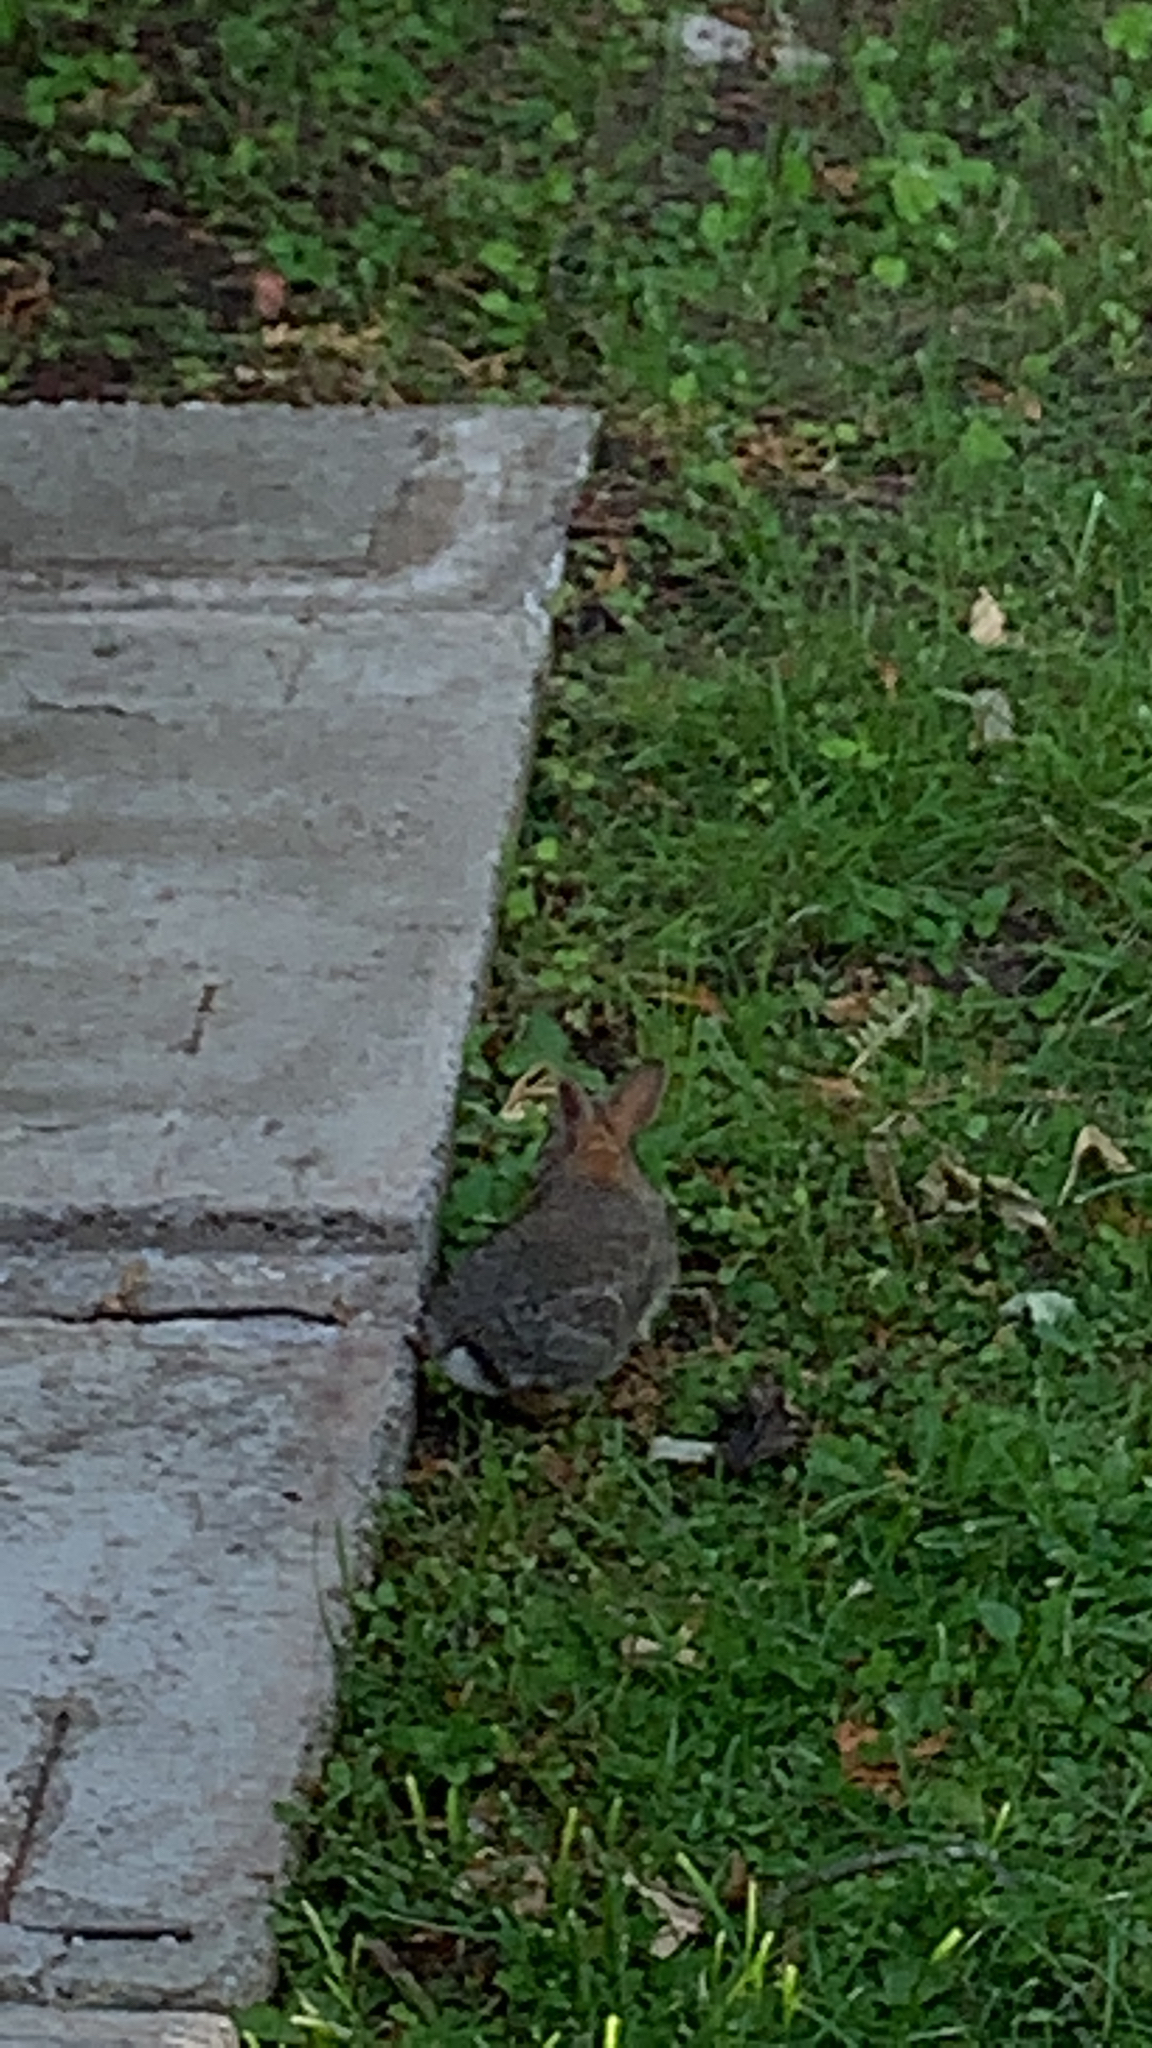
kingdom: Animalia
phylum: Chordata
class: Mammalia
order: Lagomorpha
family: Leporidae
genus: Sylvilagus
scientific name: Sylvilagus floridanus
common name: Eastern cottontail
